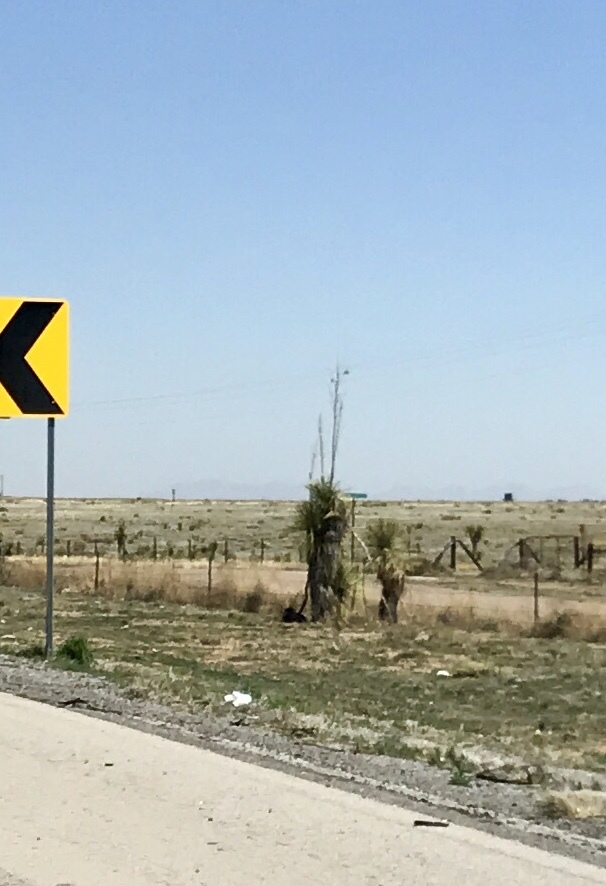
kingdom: Plantae
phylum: Tracheophyta
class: Liliopsida
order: Asparagales
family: Asparagaceae
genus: Yucca
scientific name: Yucca elata
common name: Palmella
